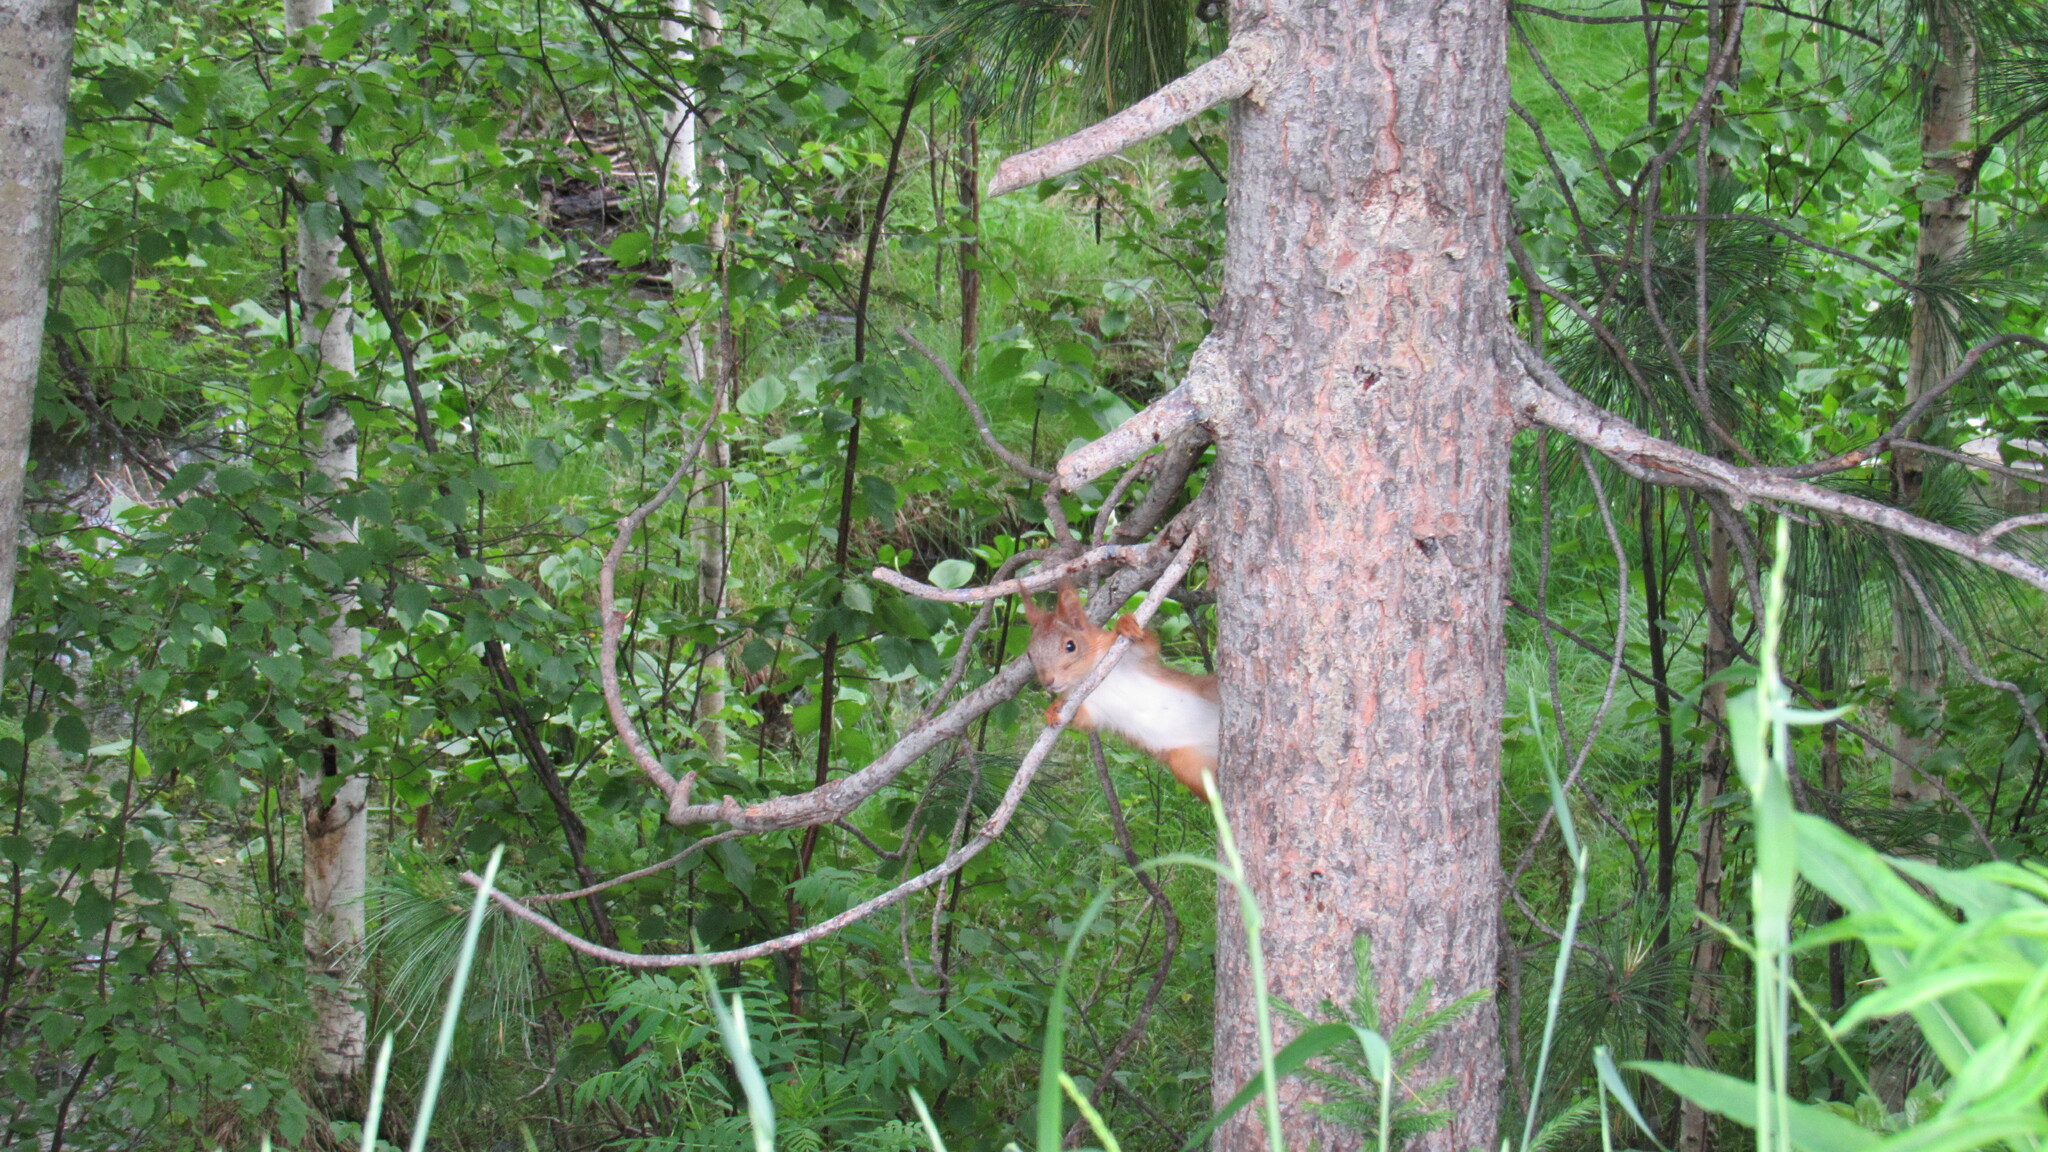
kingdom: Animalia
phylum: Chordata
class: Mammalia
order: Rodentia
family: Sciuridae
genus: Sciurus
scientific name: Sciurus vulgaris
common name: Eurasian red squirrel
